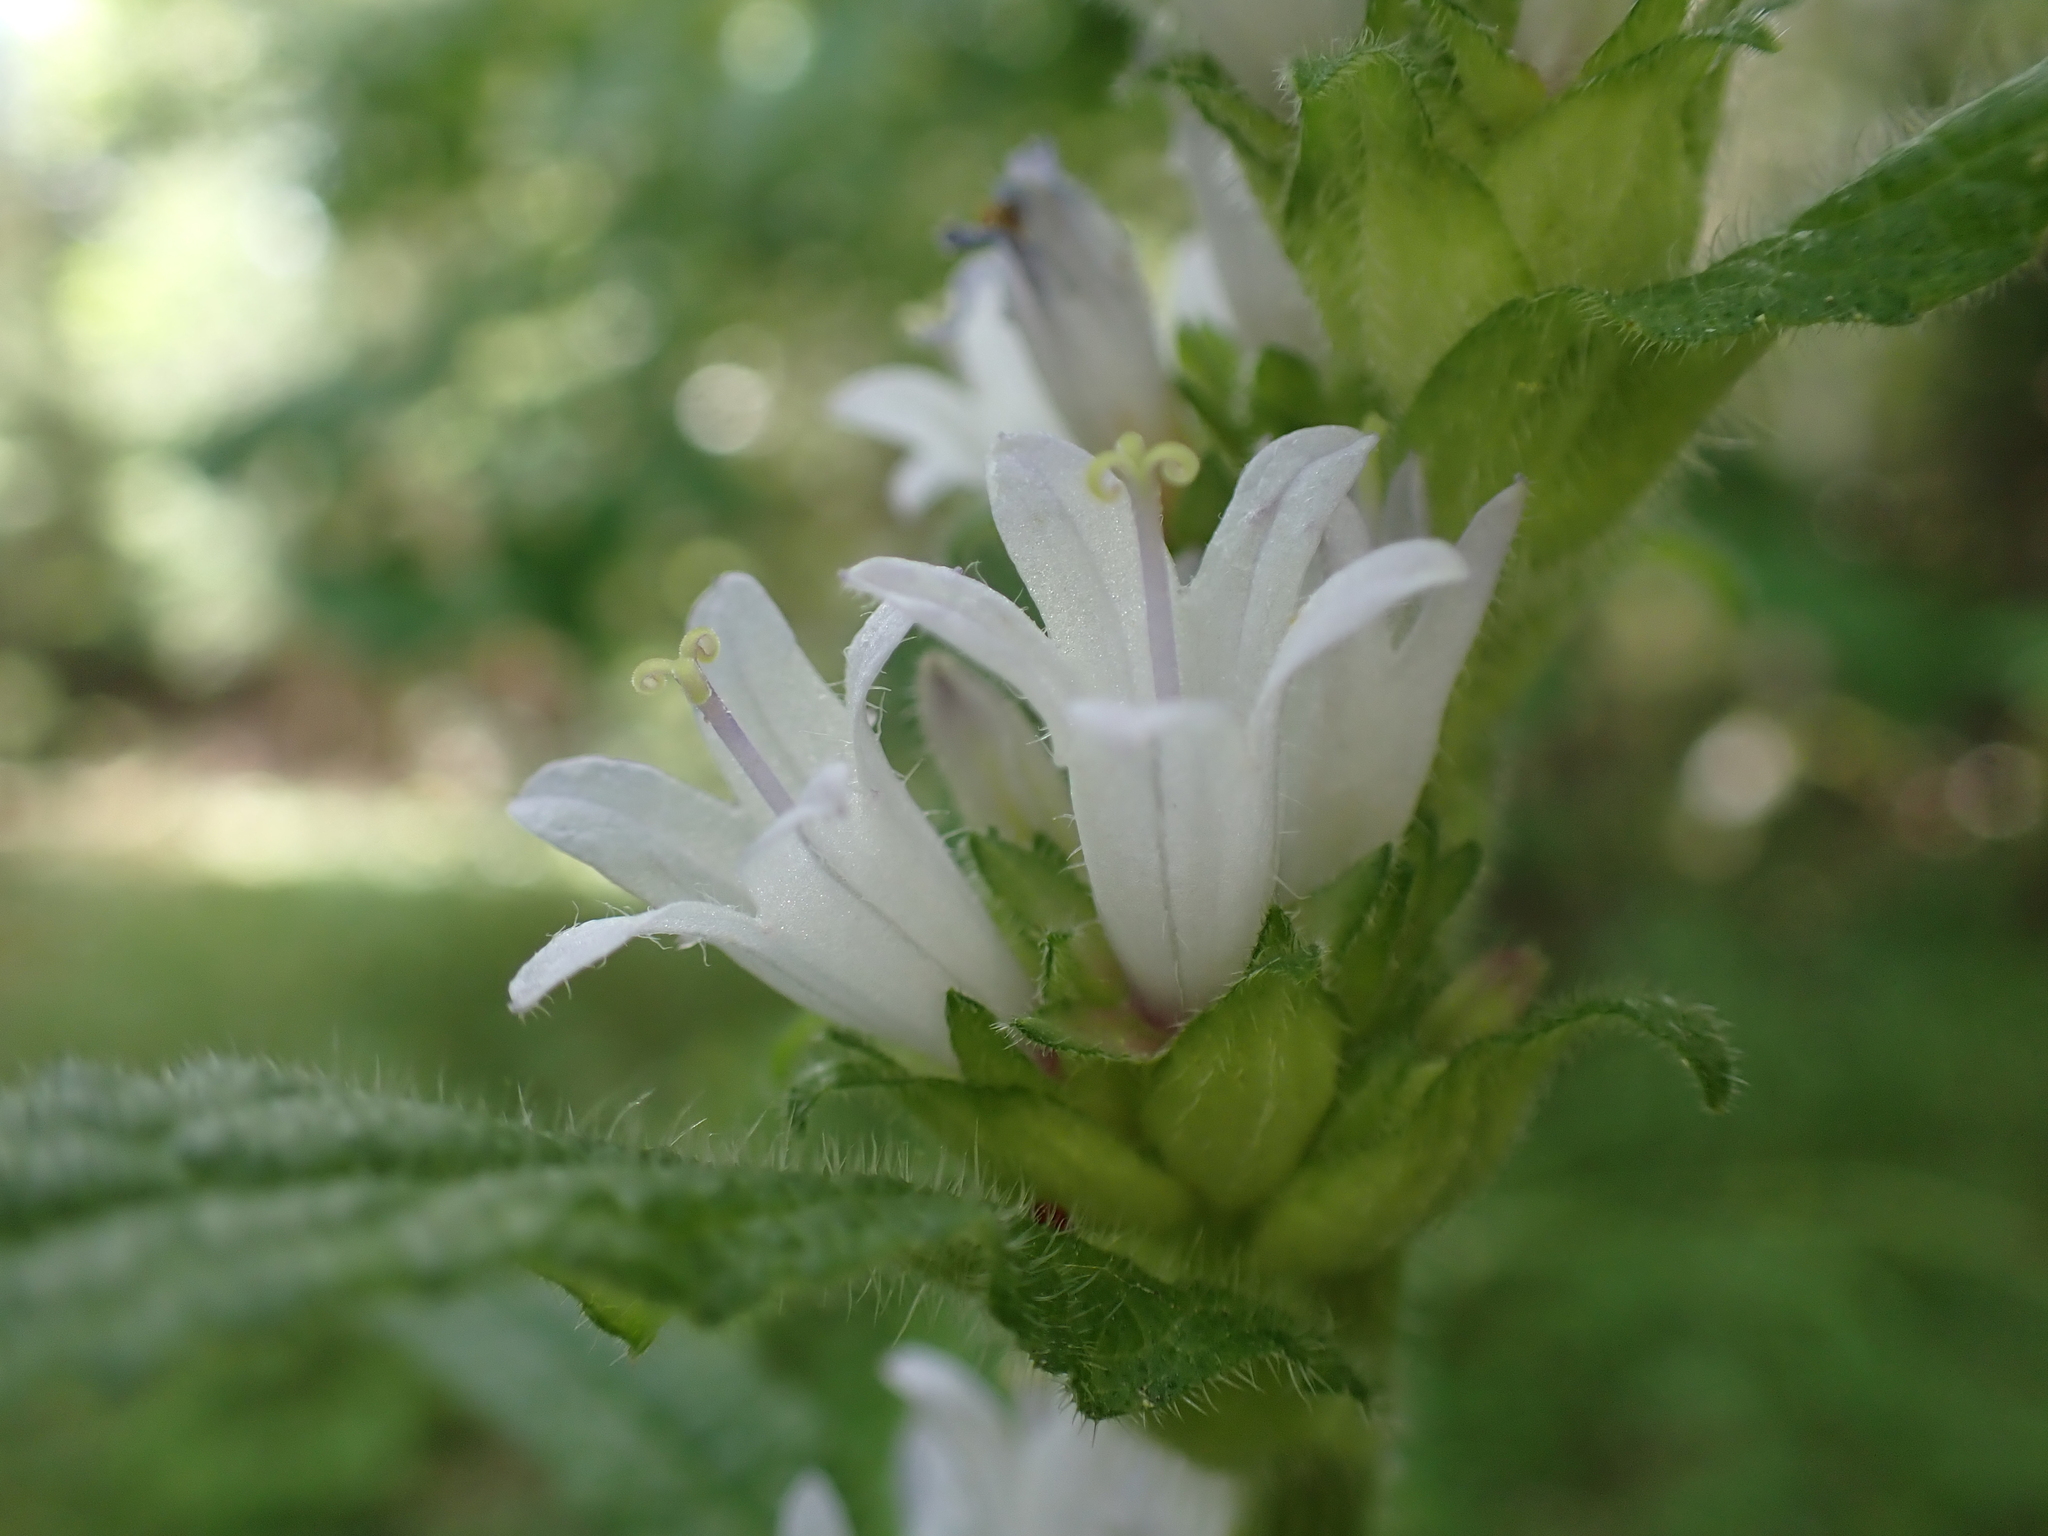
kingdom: Plantae
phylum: Tracheophyta
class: Magnoliopsida
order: Asterales
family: Campanulaceae
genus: Campanula
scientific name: Campanula cervicaria
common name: Bristly bellflower
